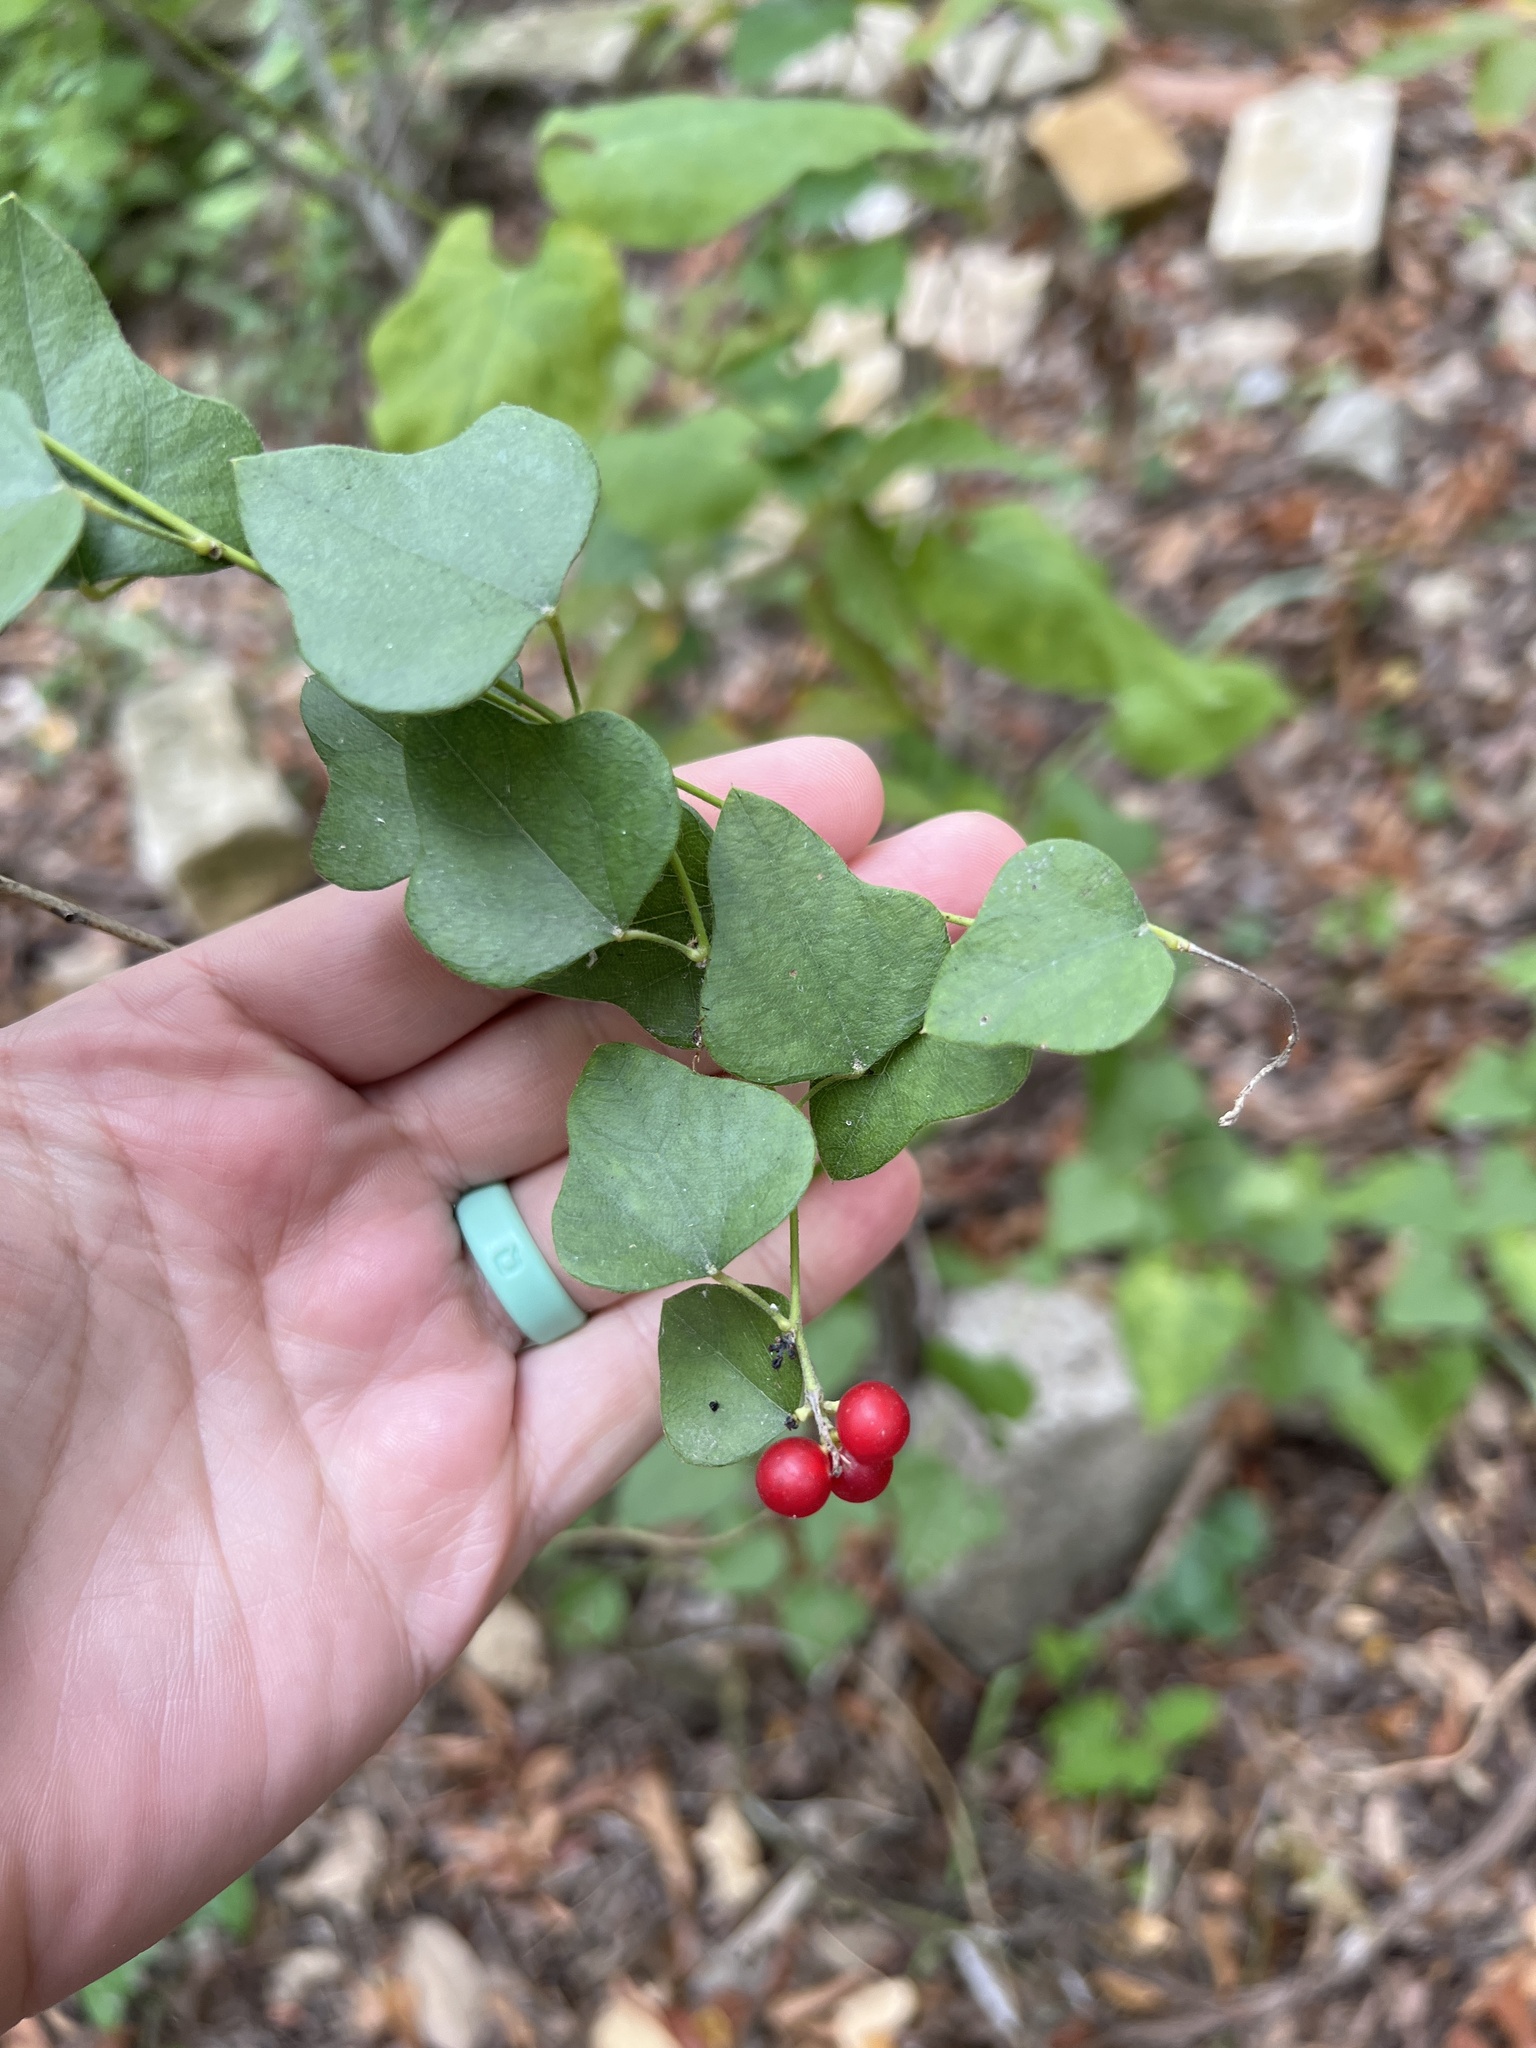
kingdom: Plantae
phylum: Tracheophyta
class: Magnoliopsida
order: Ranunculales
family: Menispermaceae
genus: Cocculus
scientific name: Cocculus carolinus
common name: Carolina moonseed
